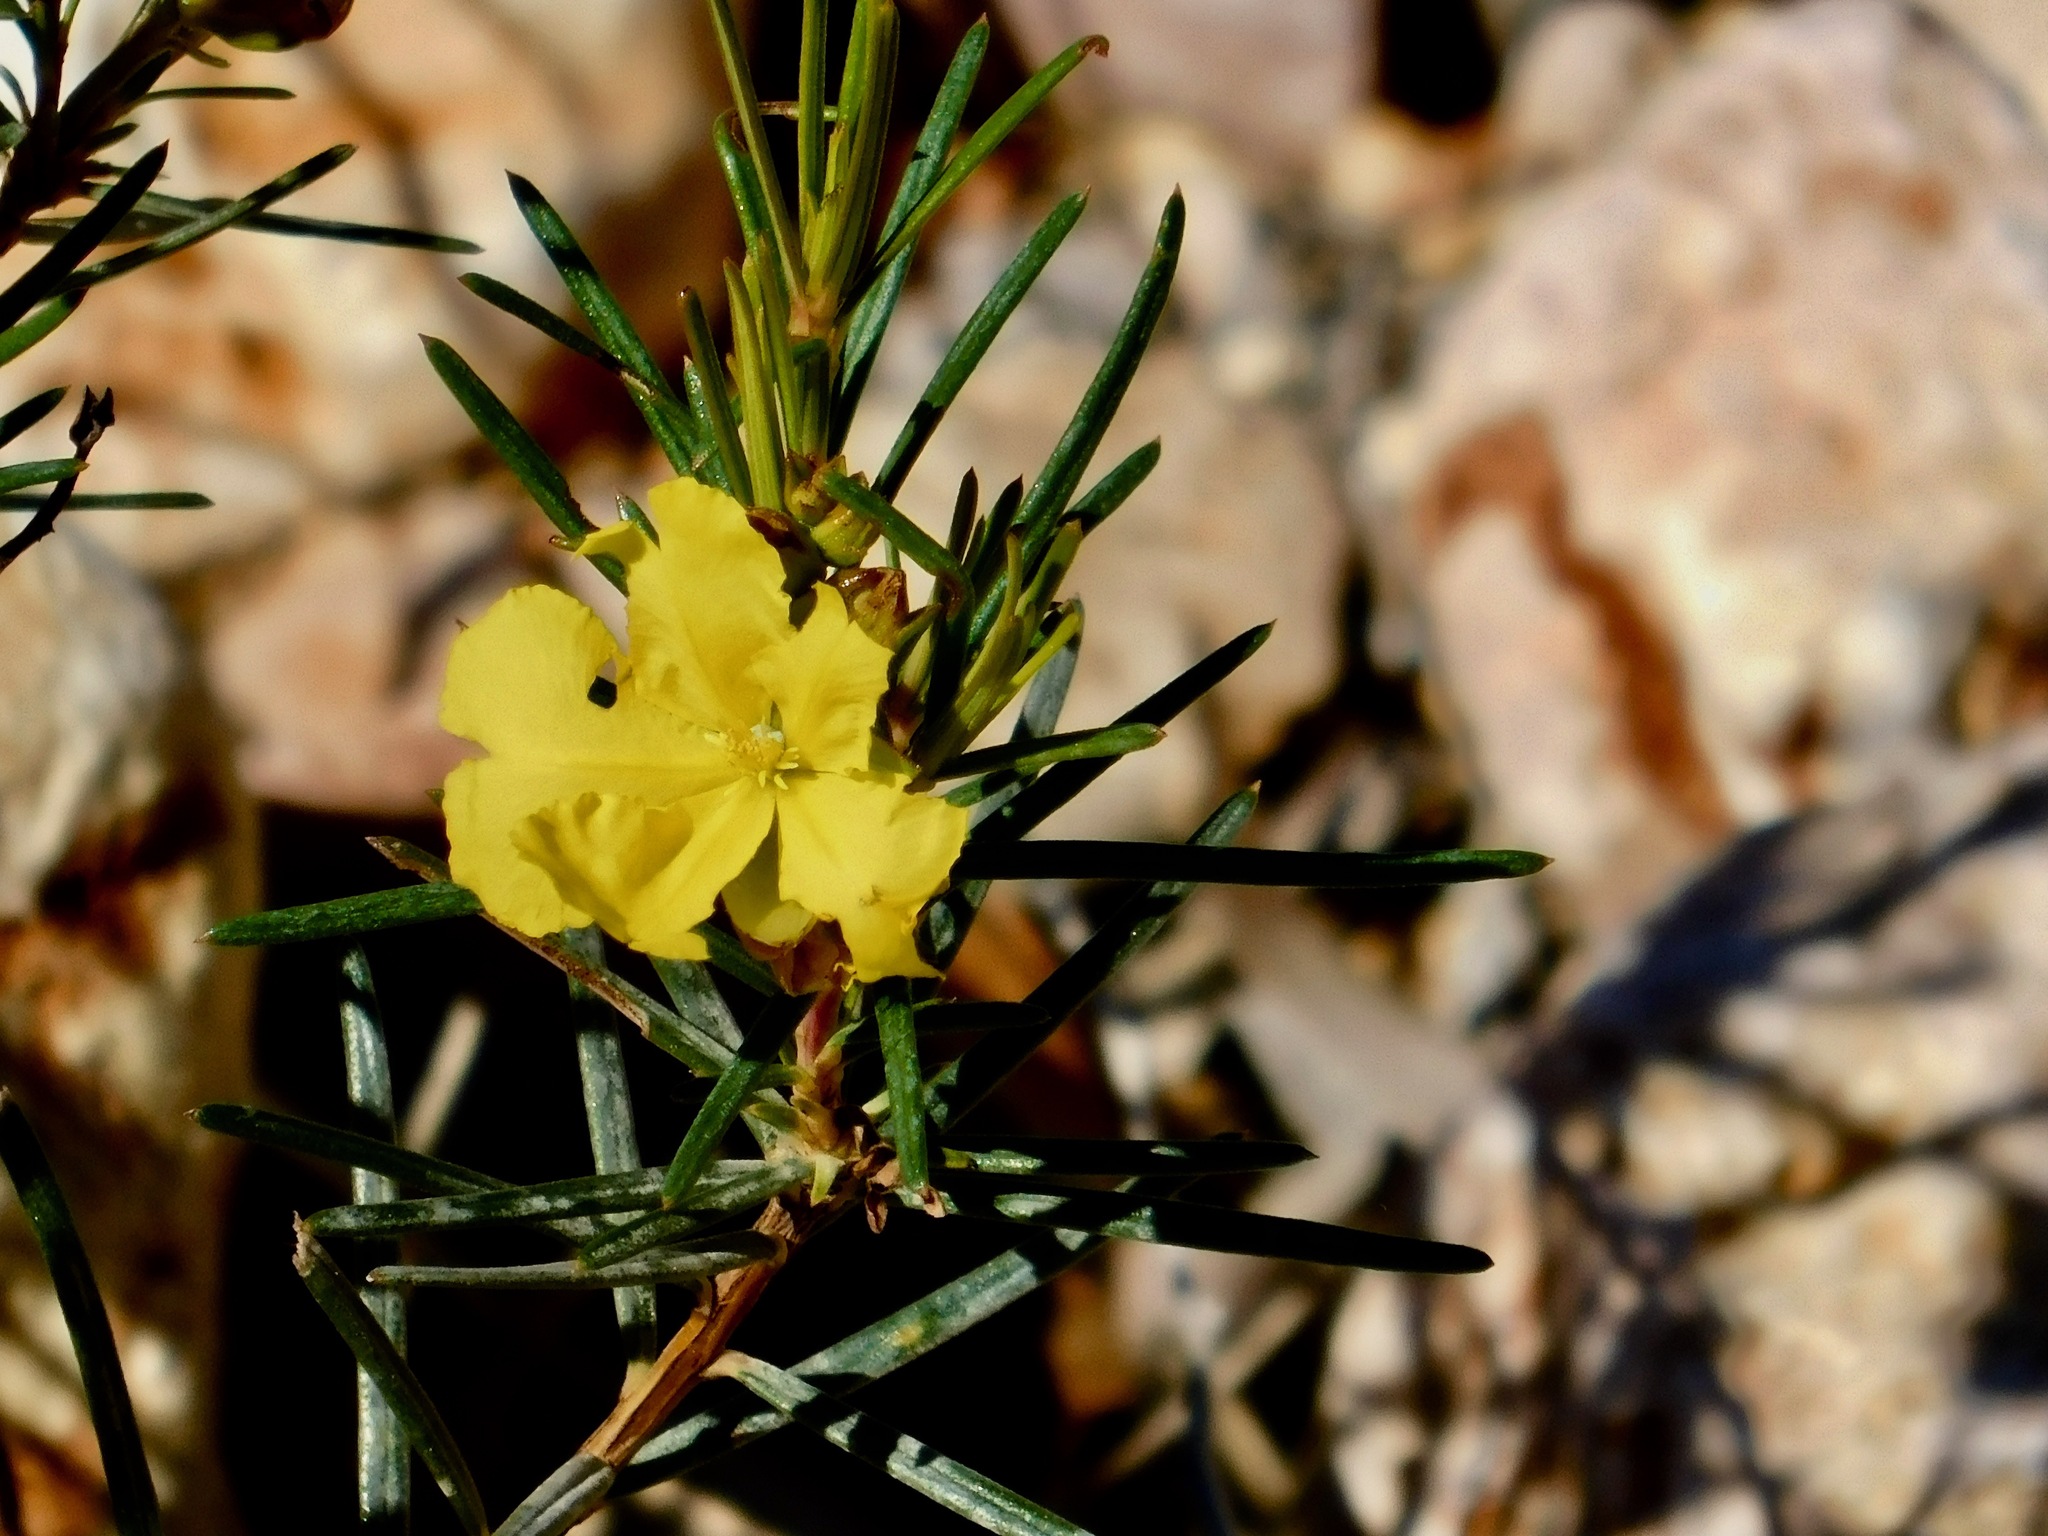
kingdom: Plantae
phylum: Tracheophyta
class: Magnoliopsida
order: Dilleniales
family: Dilleniaceae
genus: Hibbertia
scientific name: Hibbertia capensis
